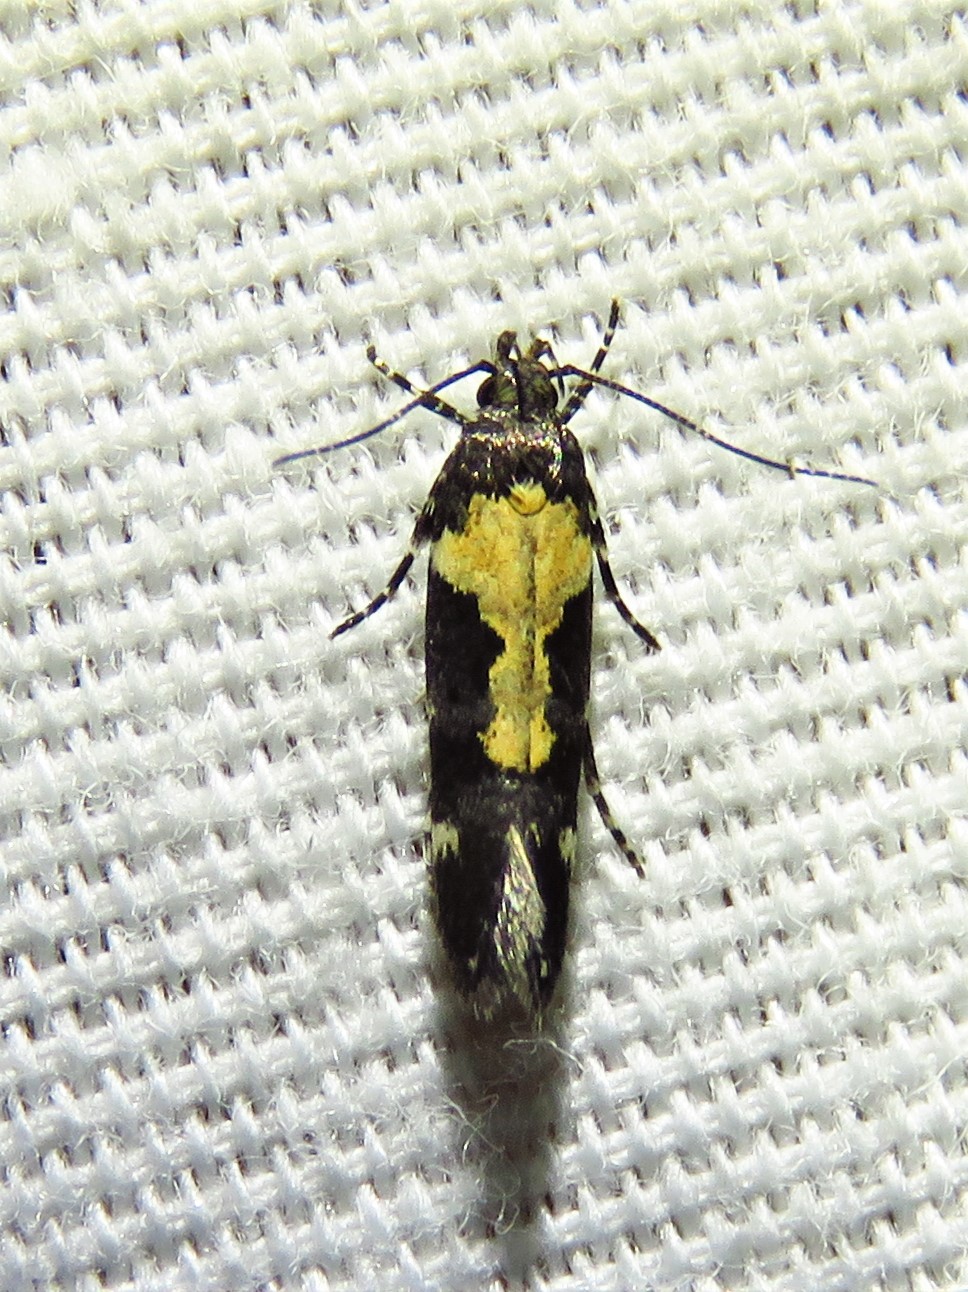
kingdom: Animalia
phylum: Arthropoda
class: Insecta
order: Lepidoptera
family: Gelechiidae
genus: Stegasta
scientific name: Stegasta bosqueella
